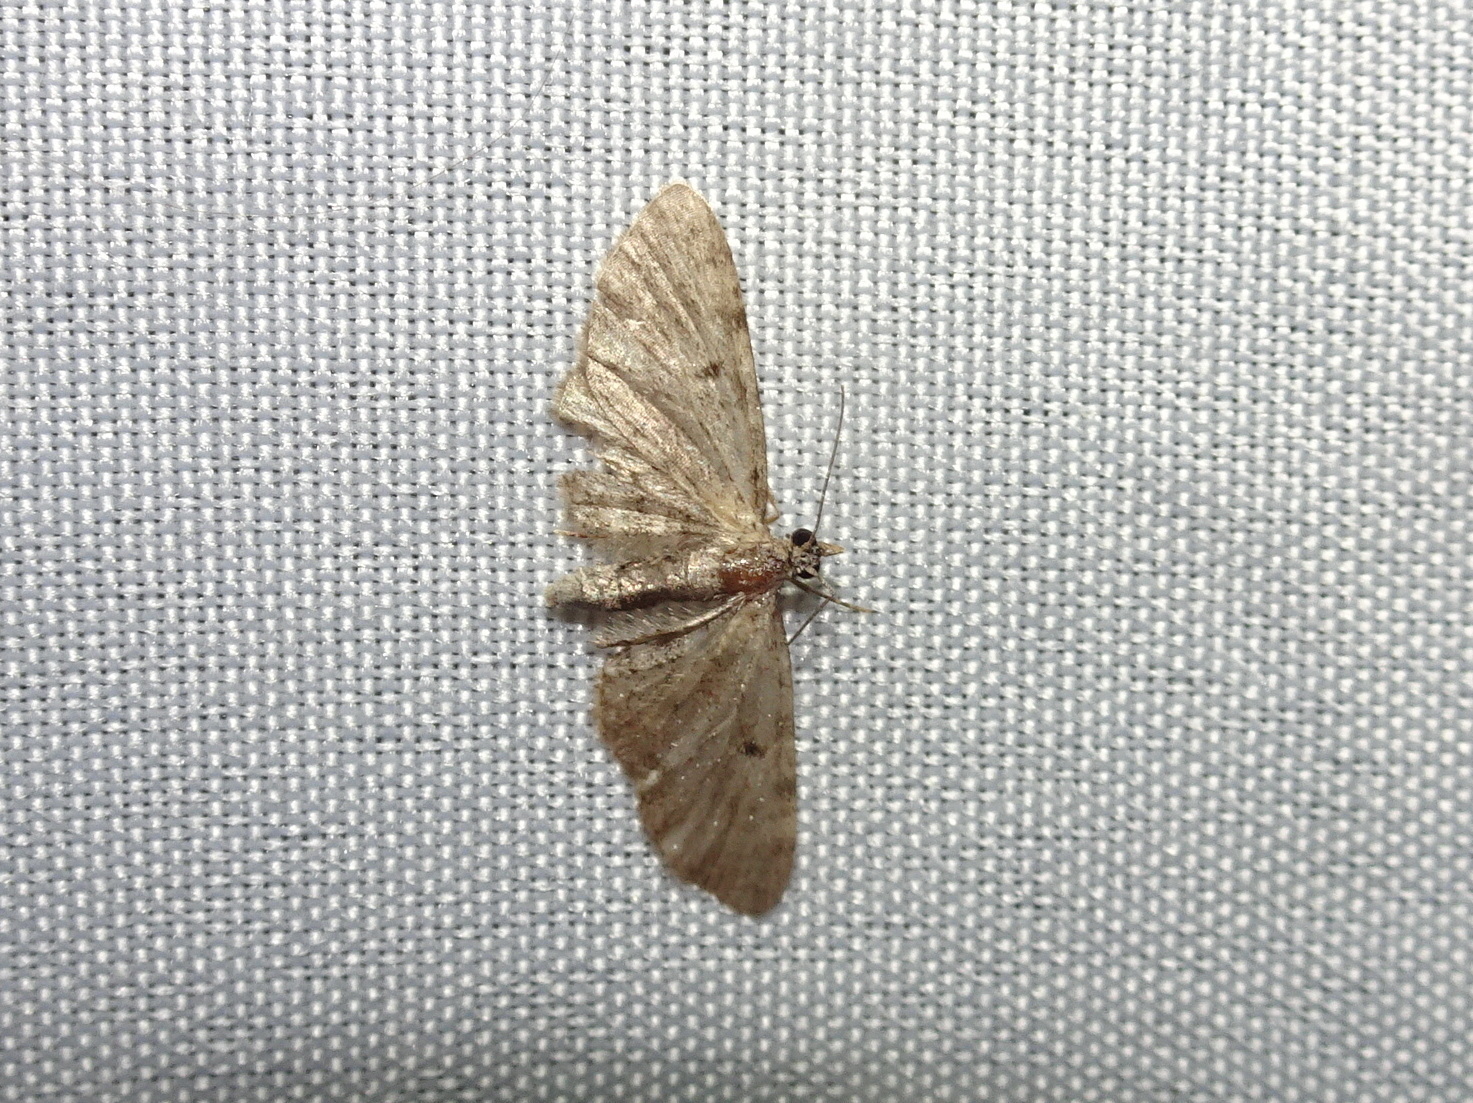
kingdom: Animalia
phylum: Arthropoda
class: Insecta
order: Lepidoptera
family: Geometridae
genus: Eupithecia
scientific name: Eupithecia miserulata
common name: Common eupithecia
